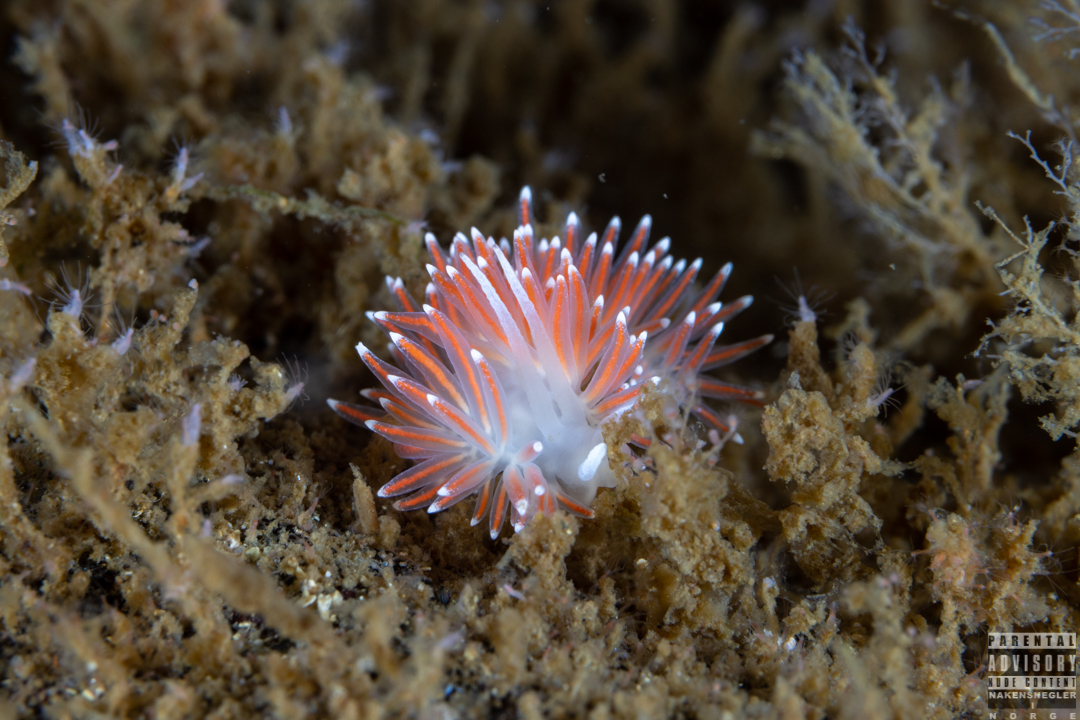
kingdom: Animalia
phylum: Mollusca
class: Gastropoda
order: Nudibranchia
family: Flabellinidae
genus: Carronella
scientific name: Carronella pellucida
